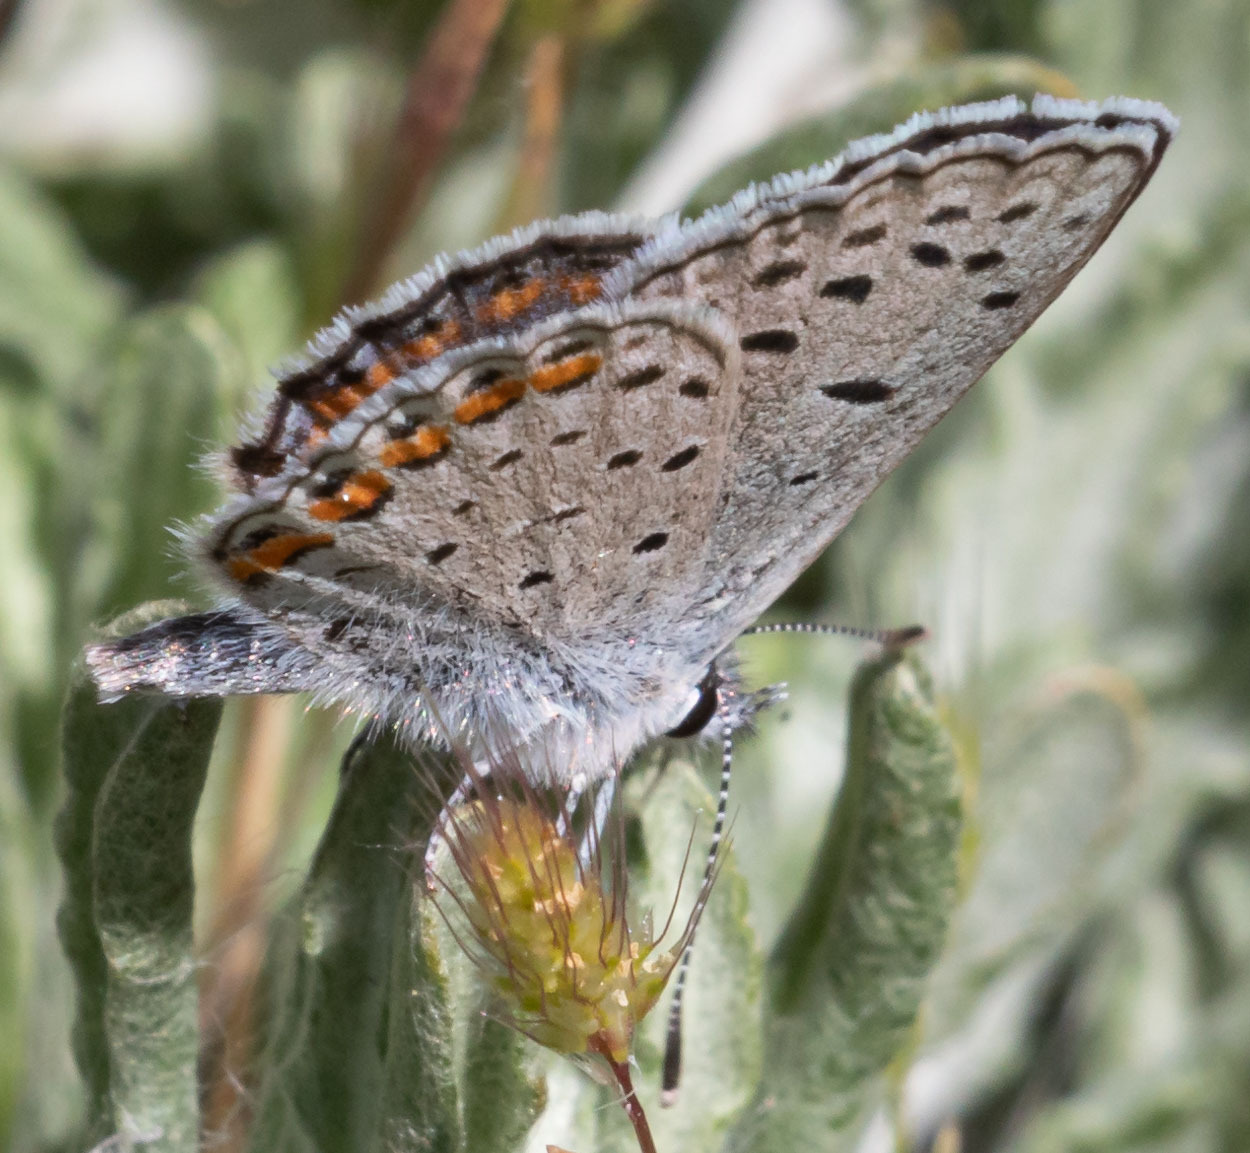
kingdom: Animalia
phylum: Arthropoda
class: Insecta
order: Lepidoptera
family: Lycaenidae
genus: Icaricia
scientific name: Icaricia acmon
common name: Acmon blue
